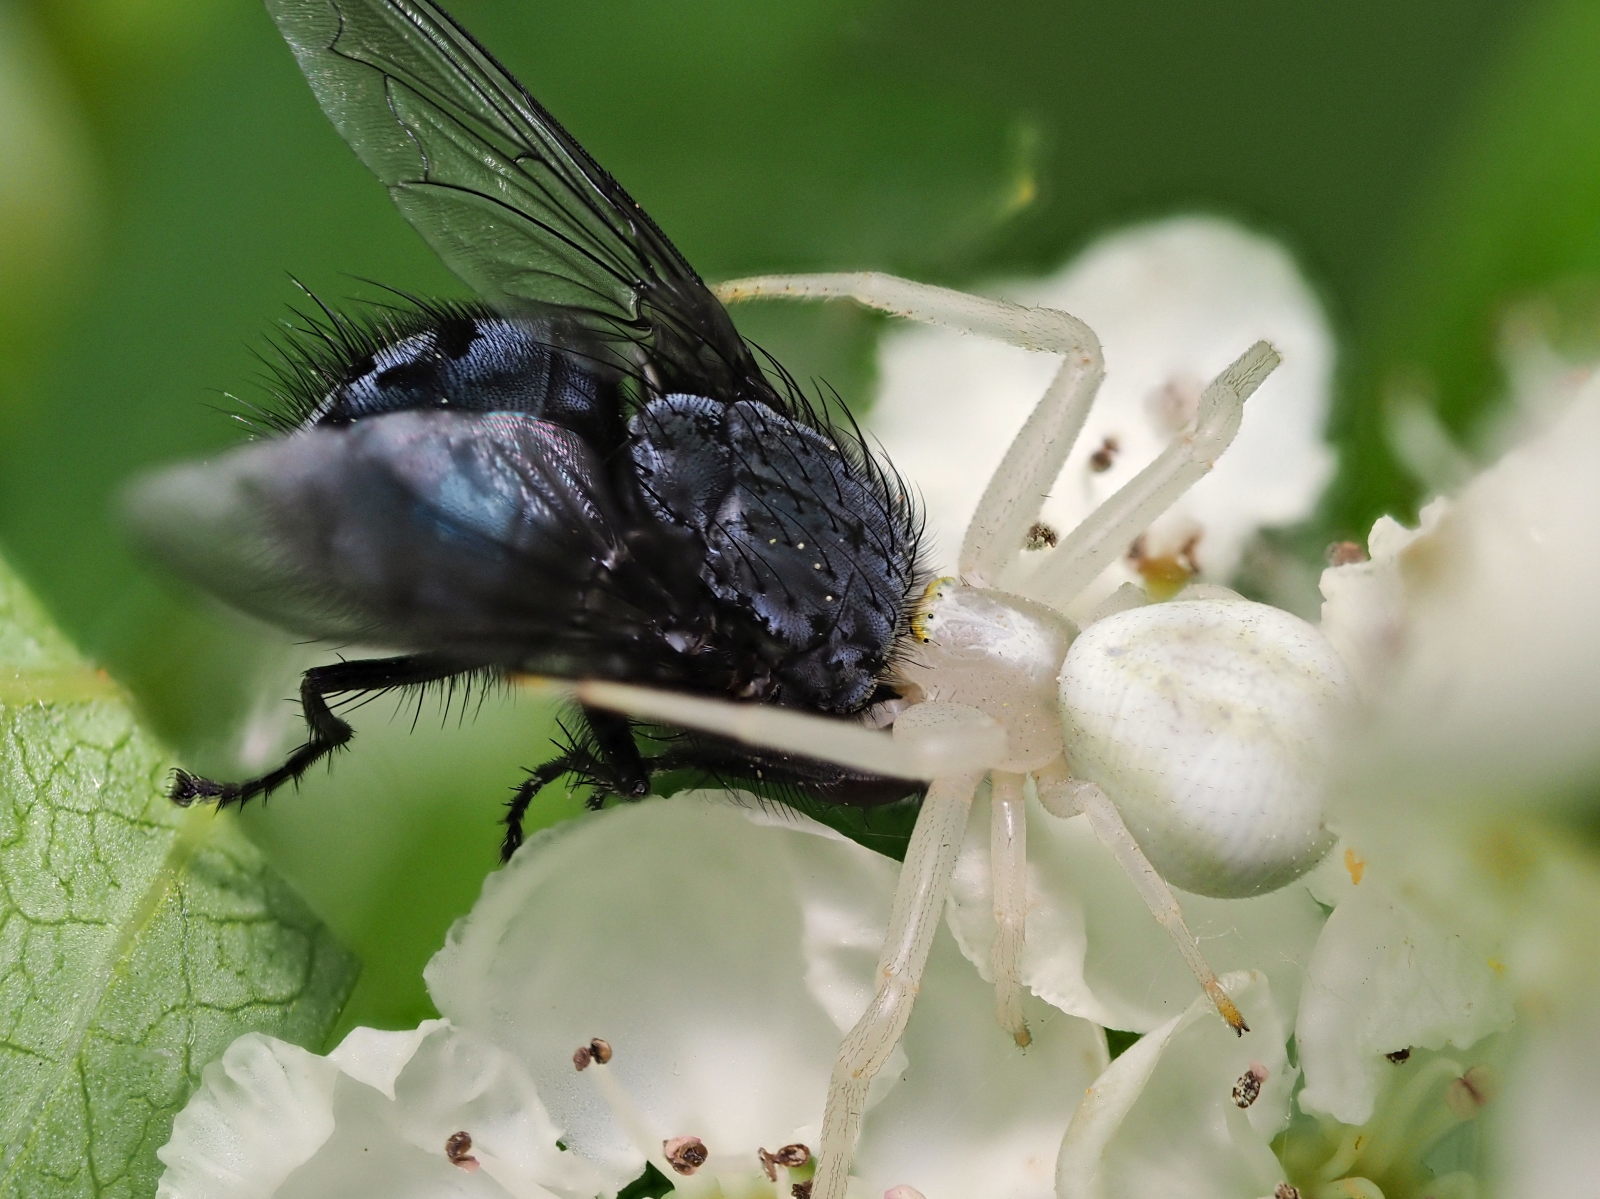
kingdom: Animalia
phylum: Arthropoda
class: Arachnida
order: Araneae
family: Thomisidae
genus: Misumena
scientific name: Misumena vatia
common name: Goldenrod crab spider
